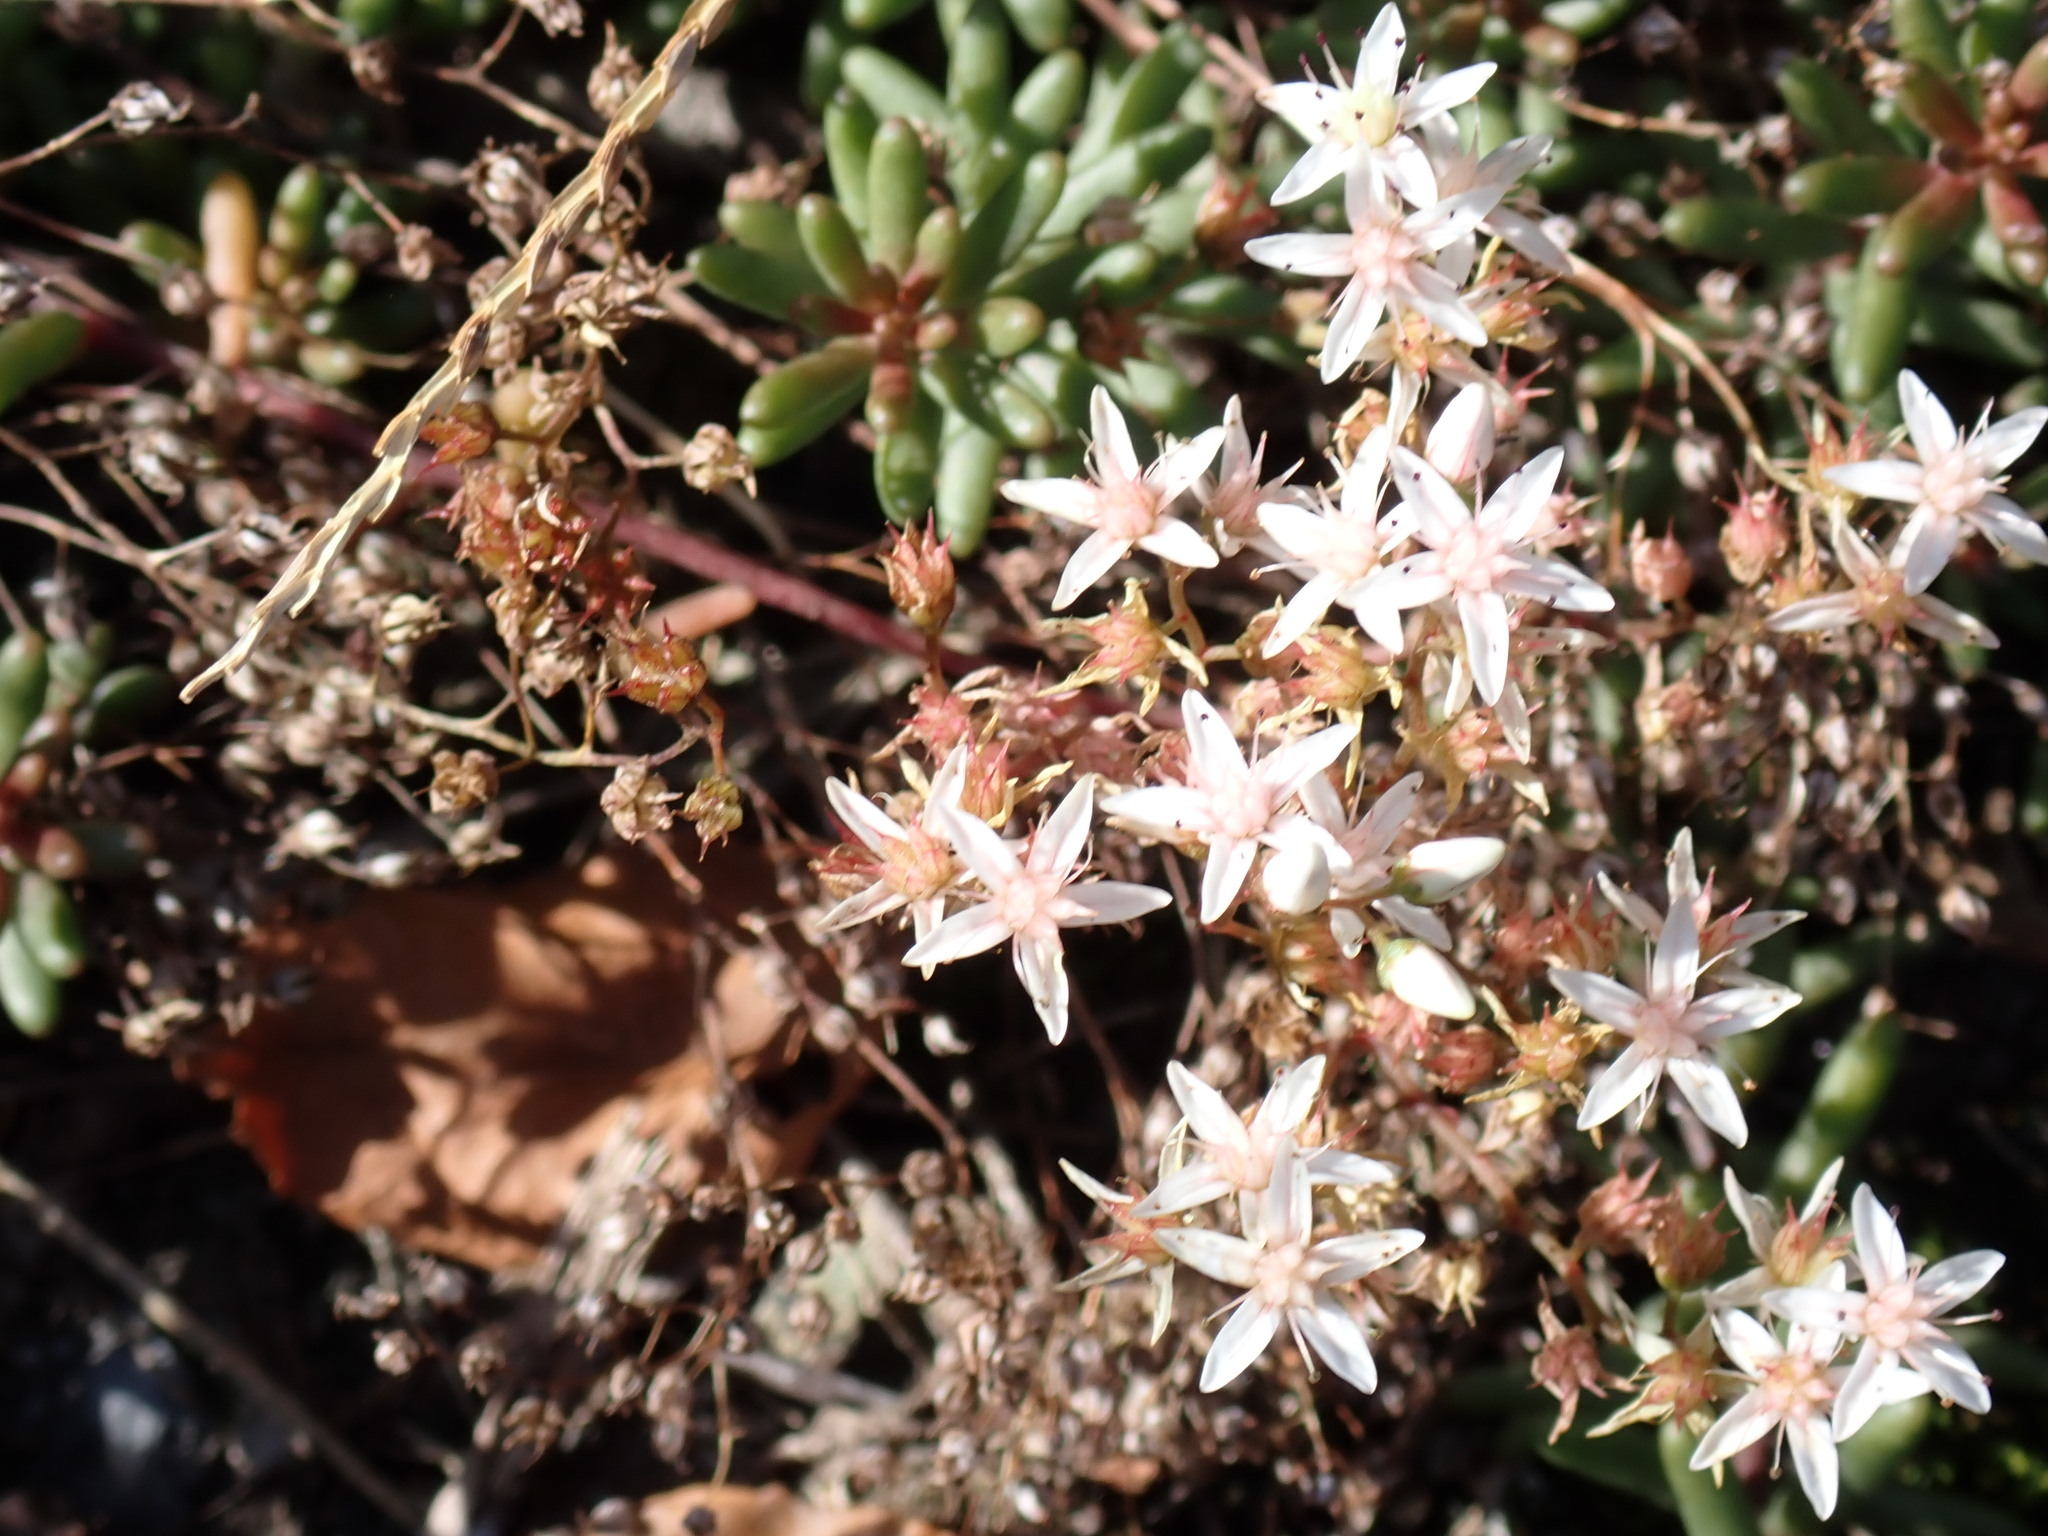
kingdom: Plantae
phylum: Tracheophyta
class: Magnoliopsida
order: Saxifragales
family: Crassulaceae
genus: Sedum
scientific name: Sedum album
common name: White stonecrop
